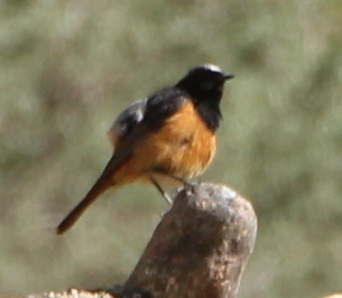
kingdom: Animalia
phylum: Chordata
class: Aves
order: Passeriformes
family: Muscicapidae
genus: Phoenicurus
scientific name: Phoenicurus ochruros
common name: Black redstart
